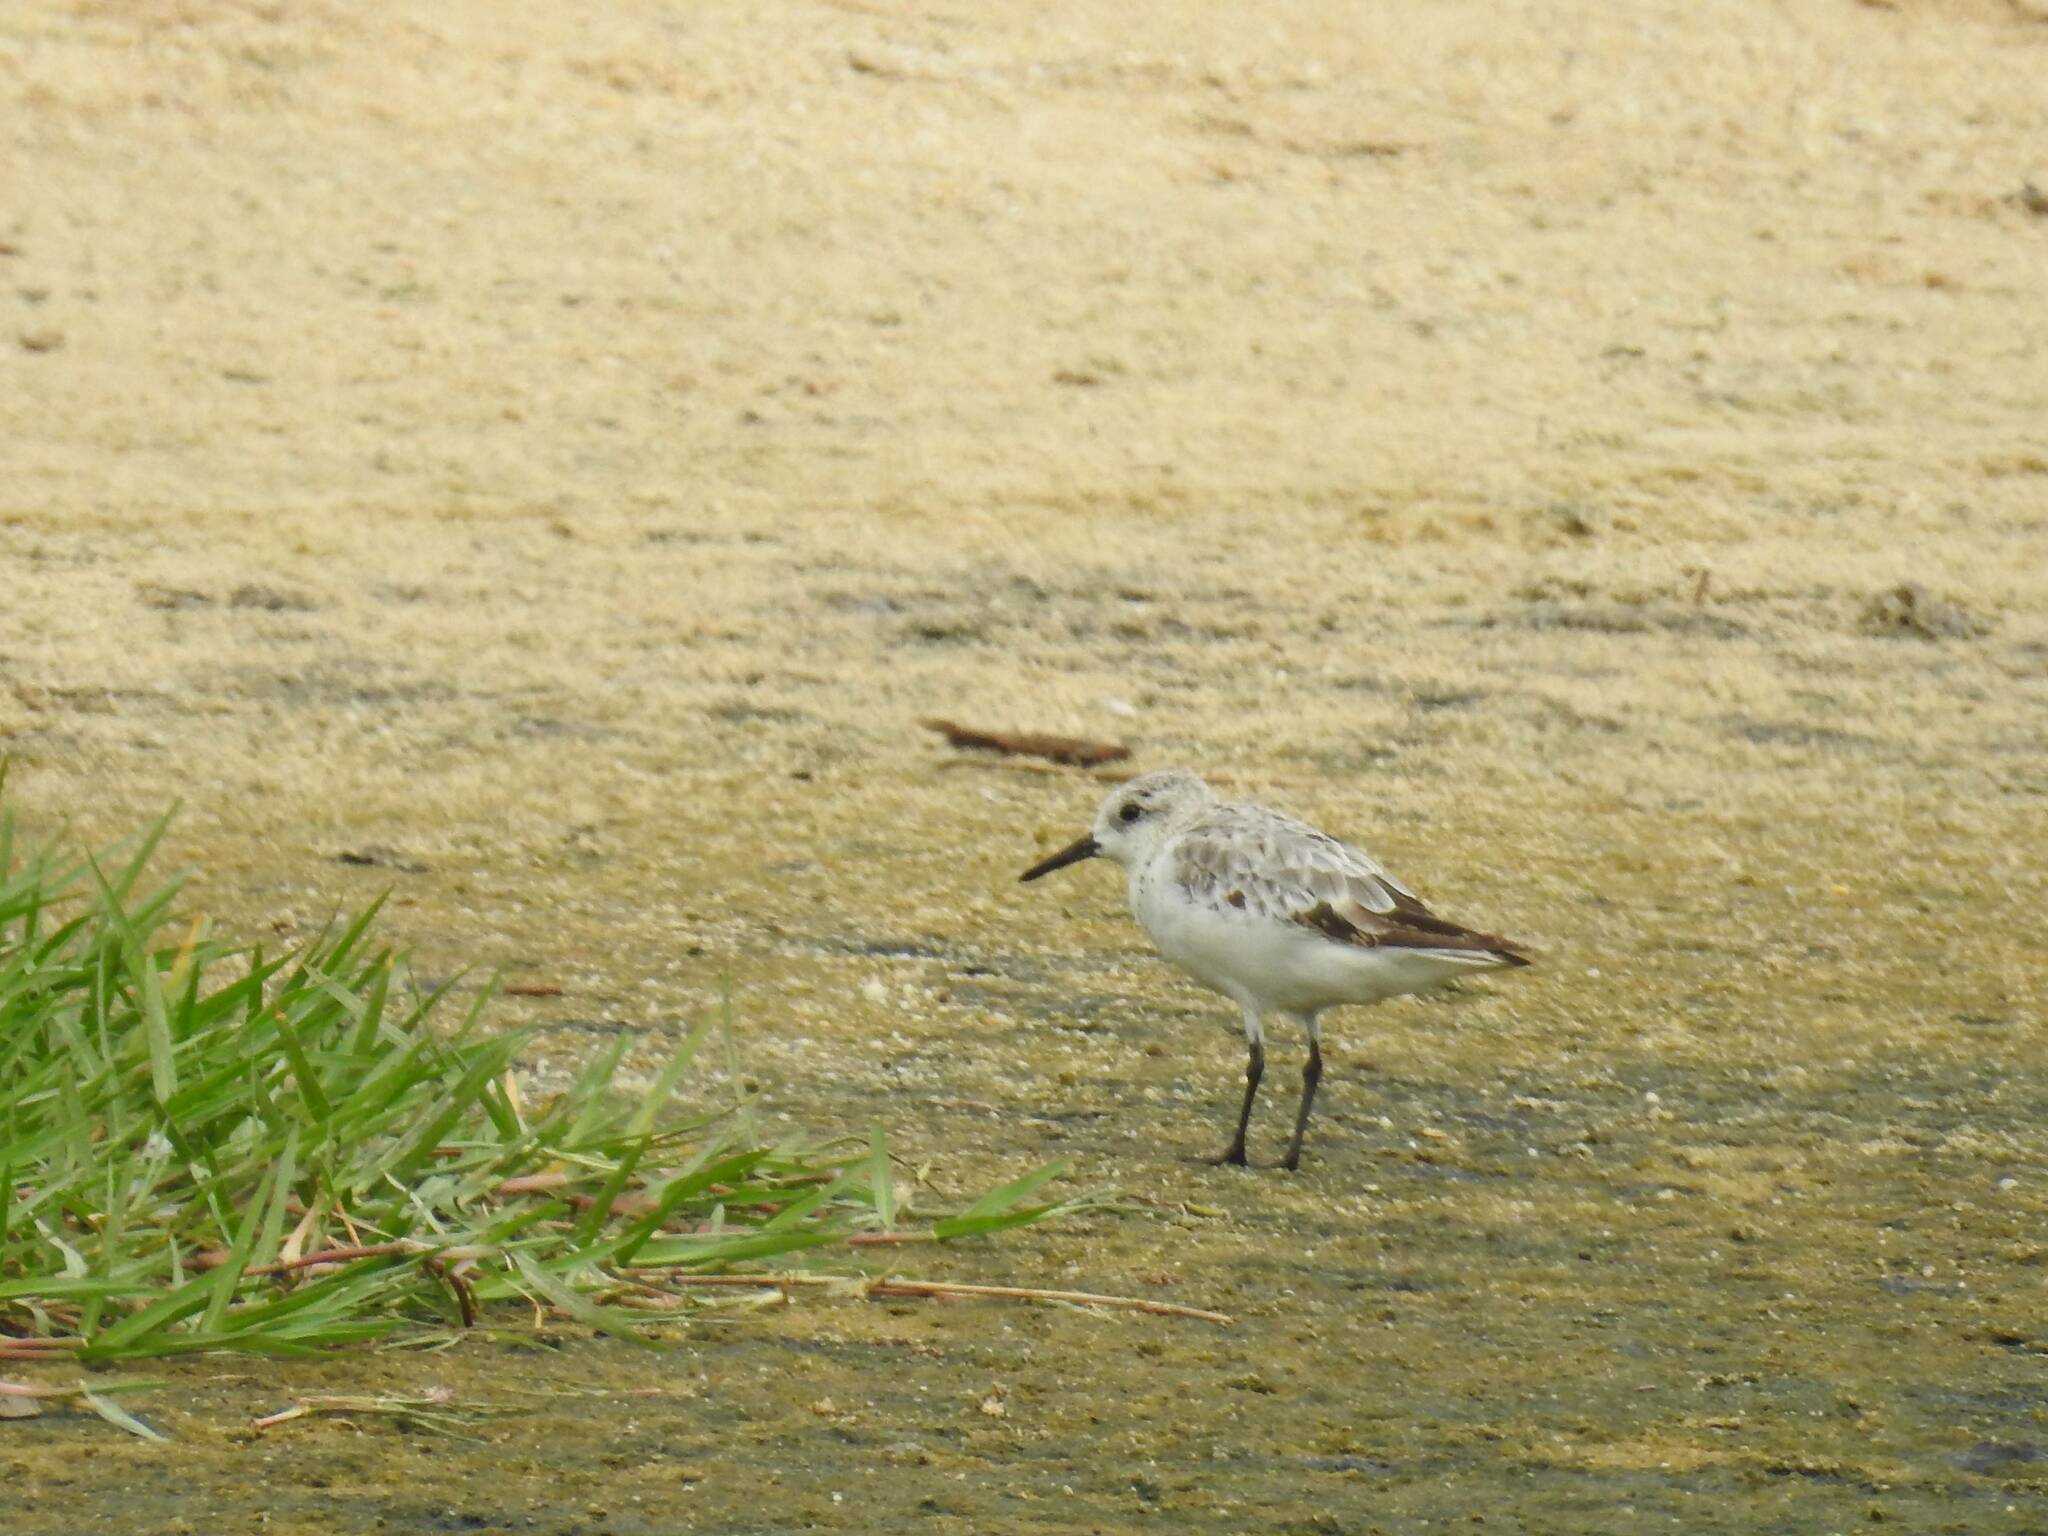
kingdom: Animalia
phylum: Chordata
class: Aves
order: Charadriiformes
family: Scolopacidae
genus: Calidris
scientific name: Calidris alba
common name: Sanderling
